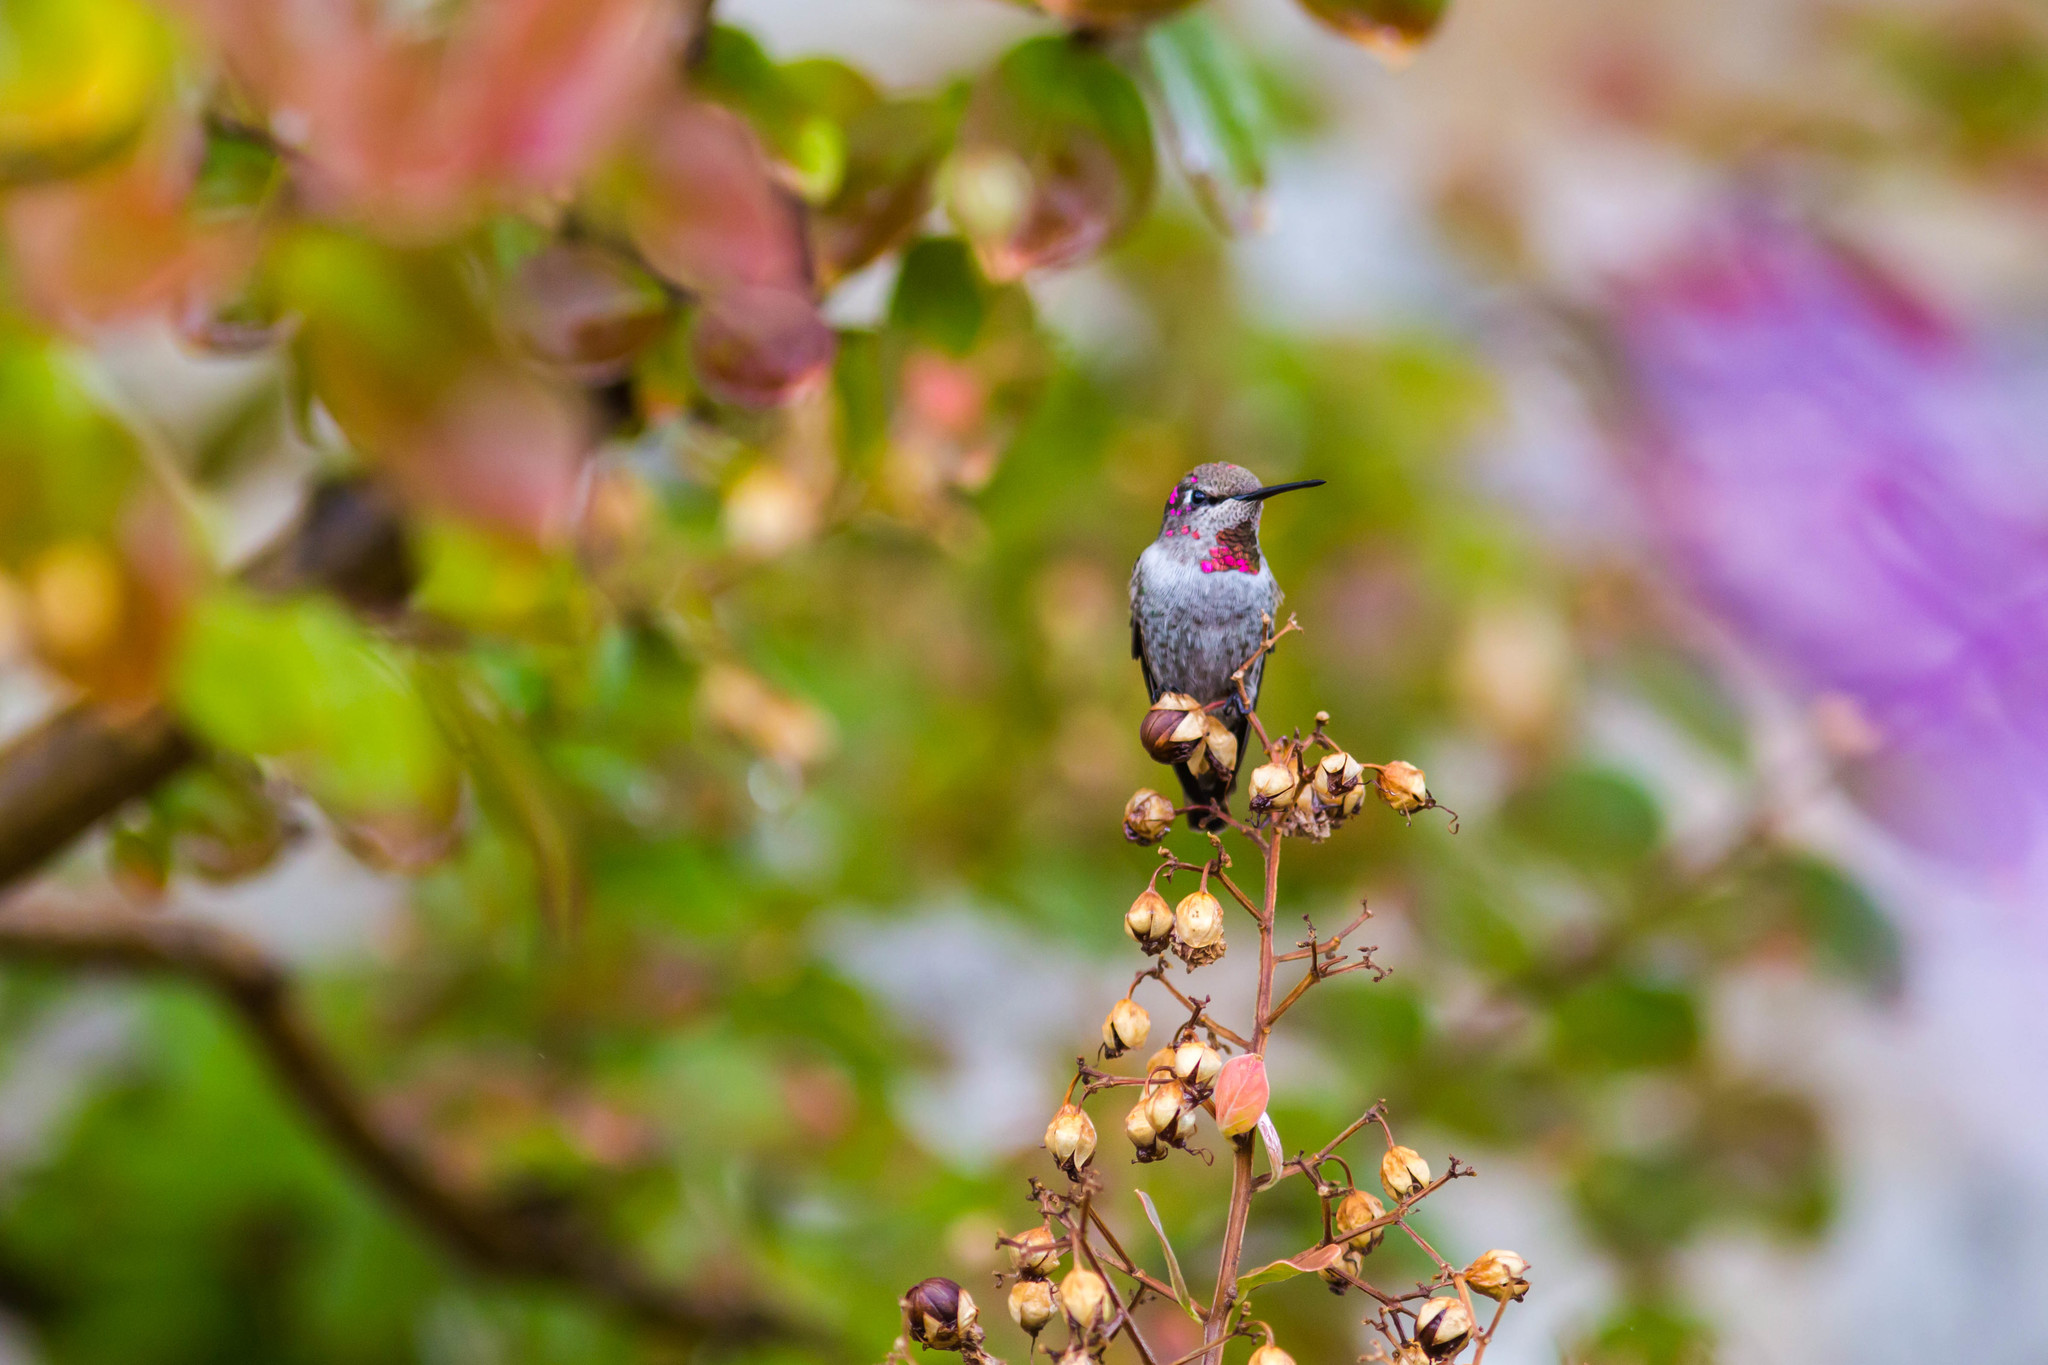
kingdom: Animalia
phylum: Chordata
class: Aves
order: Apodiformes
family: Trochilidae
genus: Calypte
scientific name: Calypte anna
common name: Anna's hummingbird
